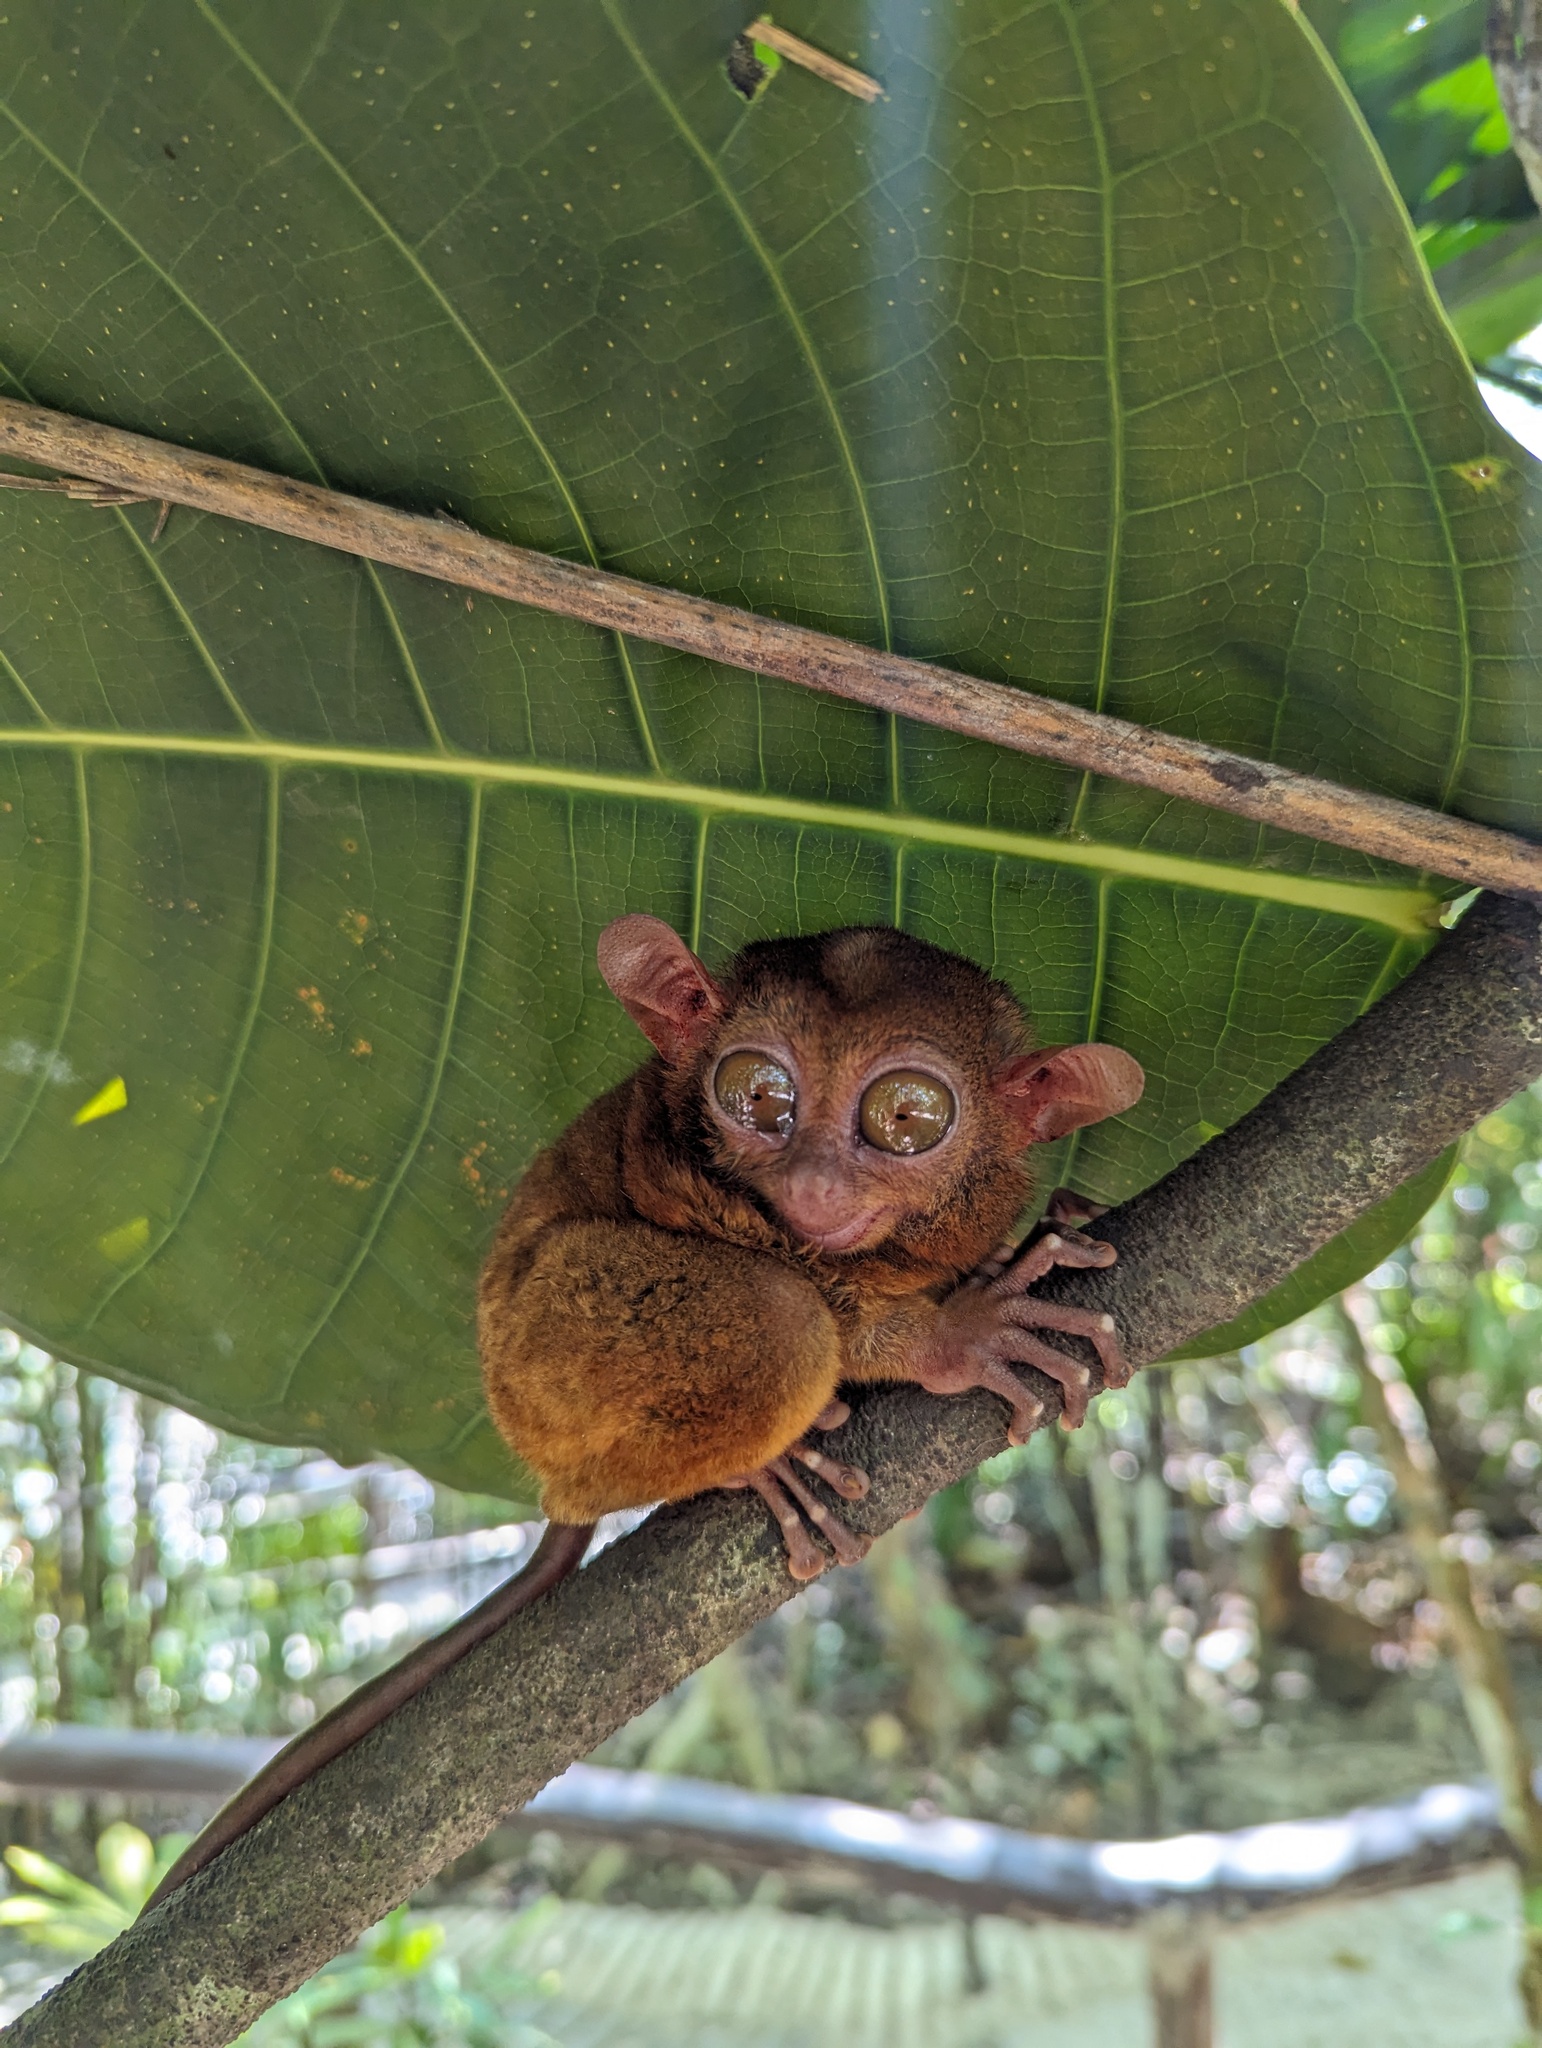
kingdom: Animalia
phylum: Chordata
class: Mammalia
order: Primates
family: Tarsiidae
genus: Carlito
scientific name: Carlito syrichta
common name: Philippine tarsier
